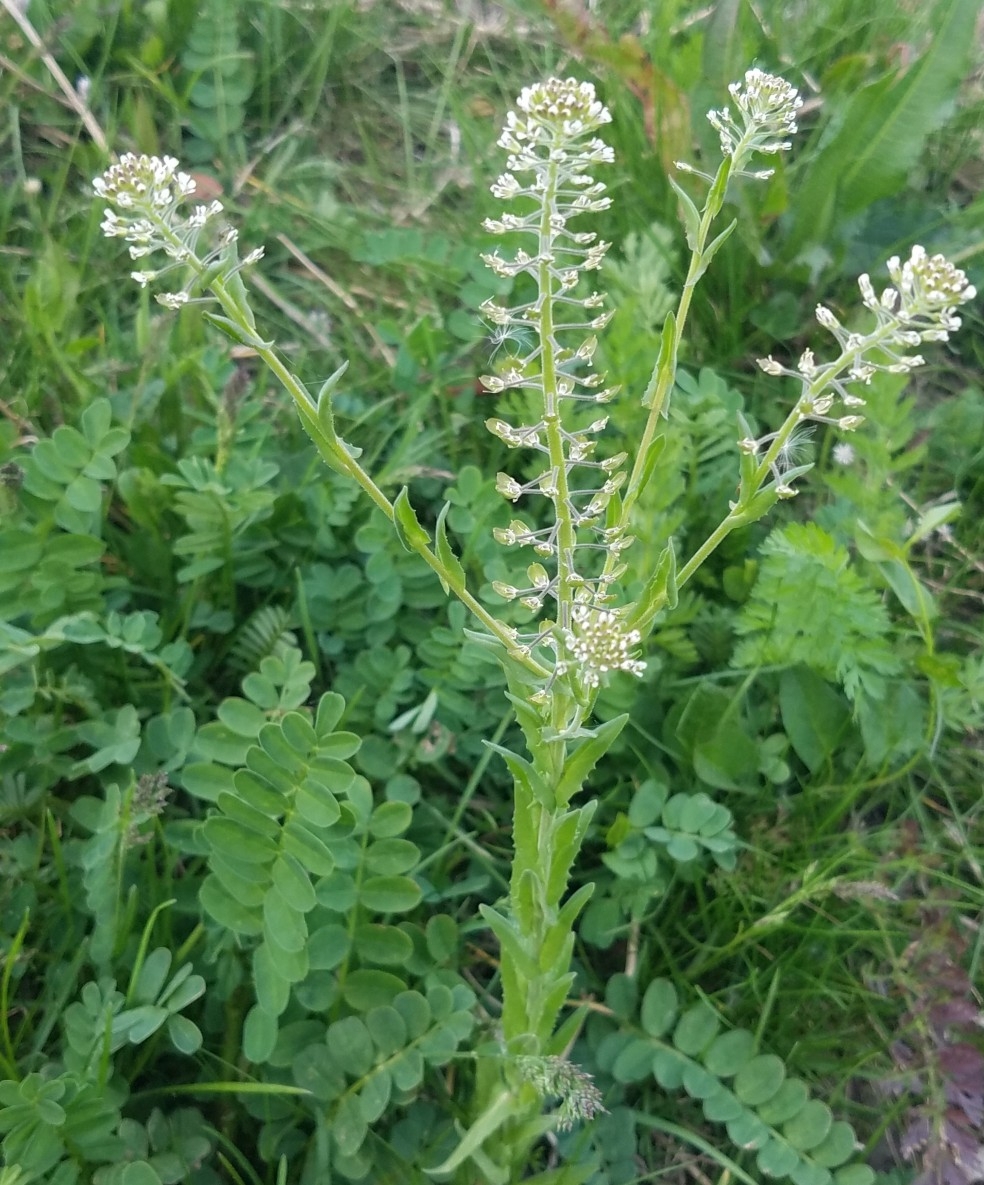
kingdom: Plantae
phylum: Tracheophyta
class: Magnoliopsida
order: Brassicales
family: Brassicaceae
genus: Lepidium
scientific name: Lepidium campestre
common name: Field pepperwort
